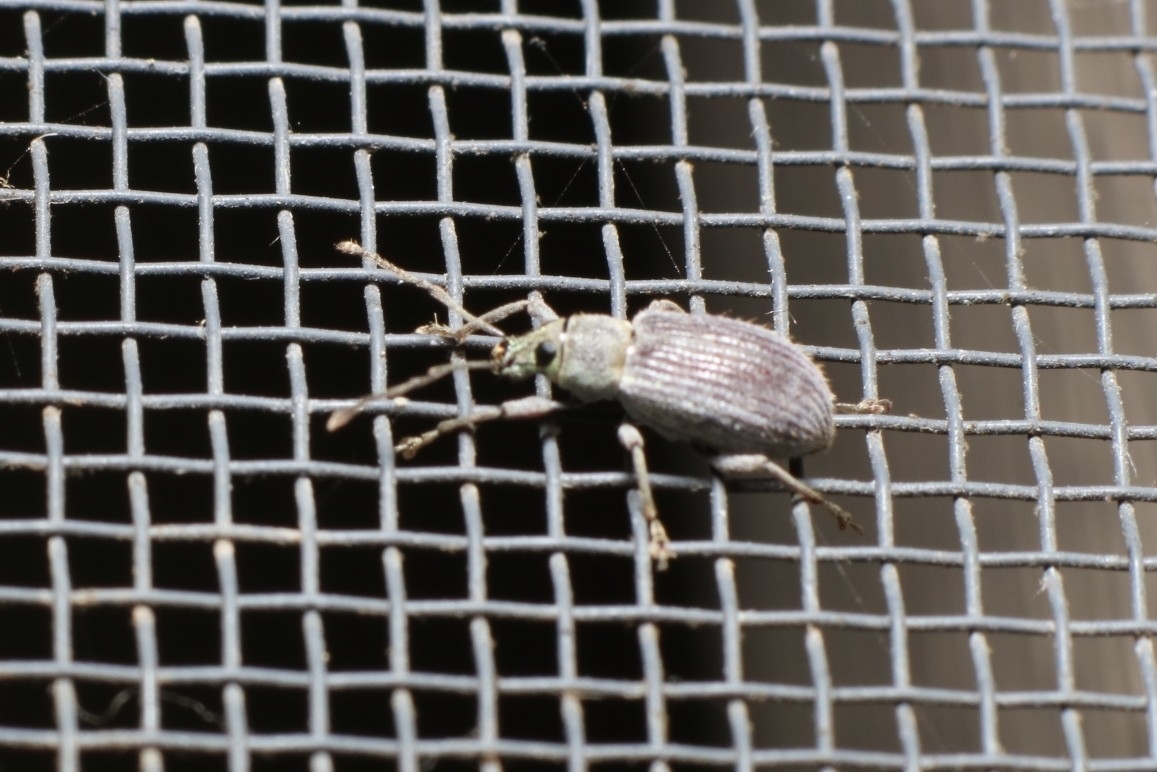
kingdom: Animalia
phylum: Arthropoda
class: Insecta
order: Coleoptera
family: Curculionidae
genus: Cyrtepistomus
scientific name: Cyrtepistomus castaneus
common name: Weevil
